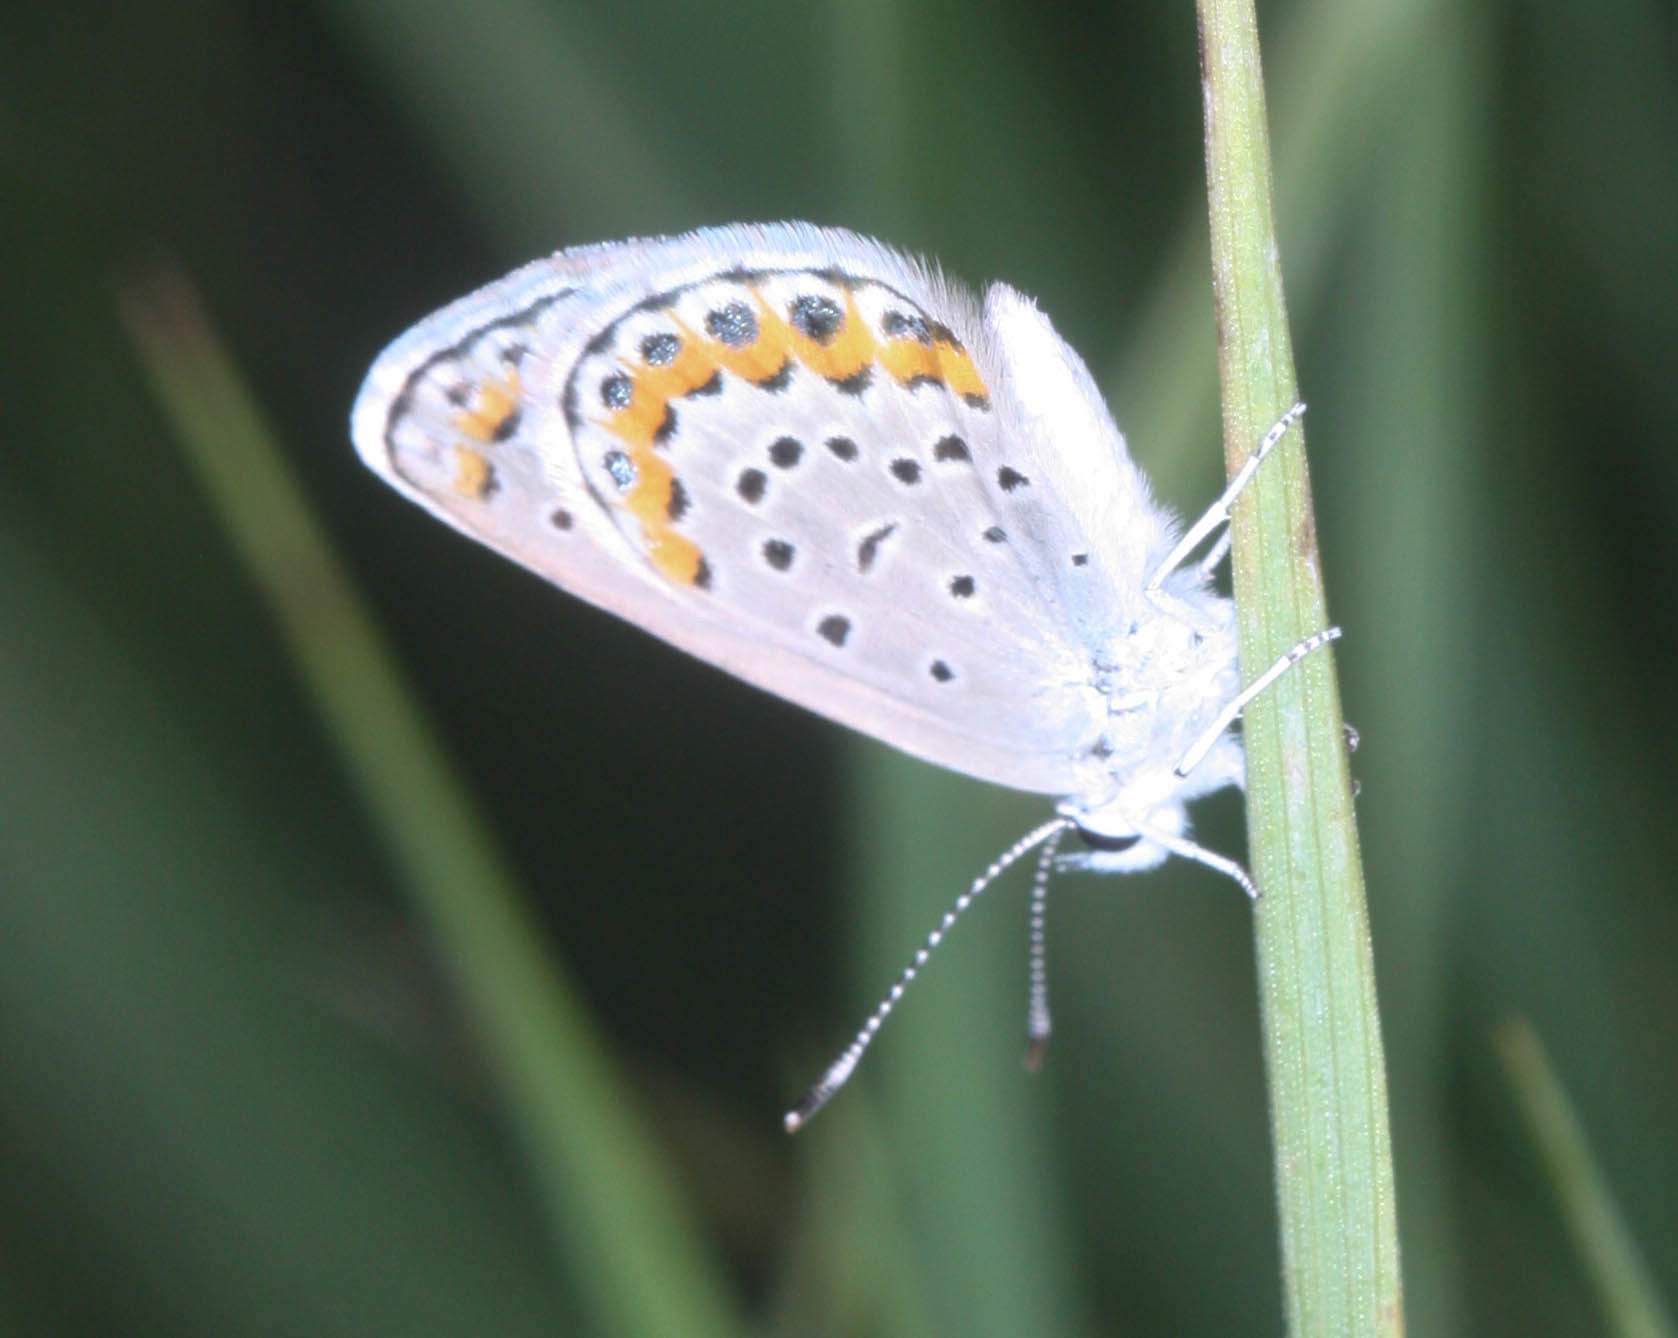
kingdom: Animalia
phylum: Arthropoda
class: Insecta
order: Lepidoptera
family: Lycaenidae
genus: Lycaeides
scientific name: Lycaeides melissa
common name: Melissa blue
